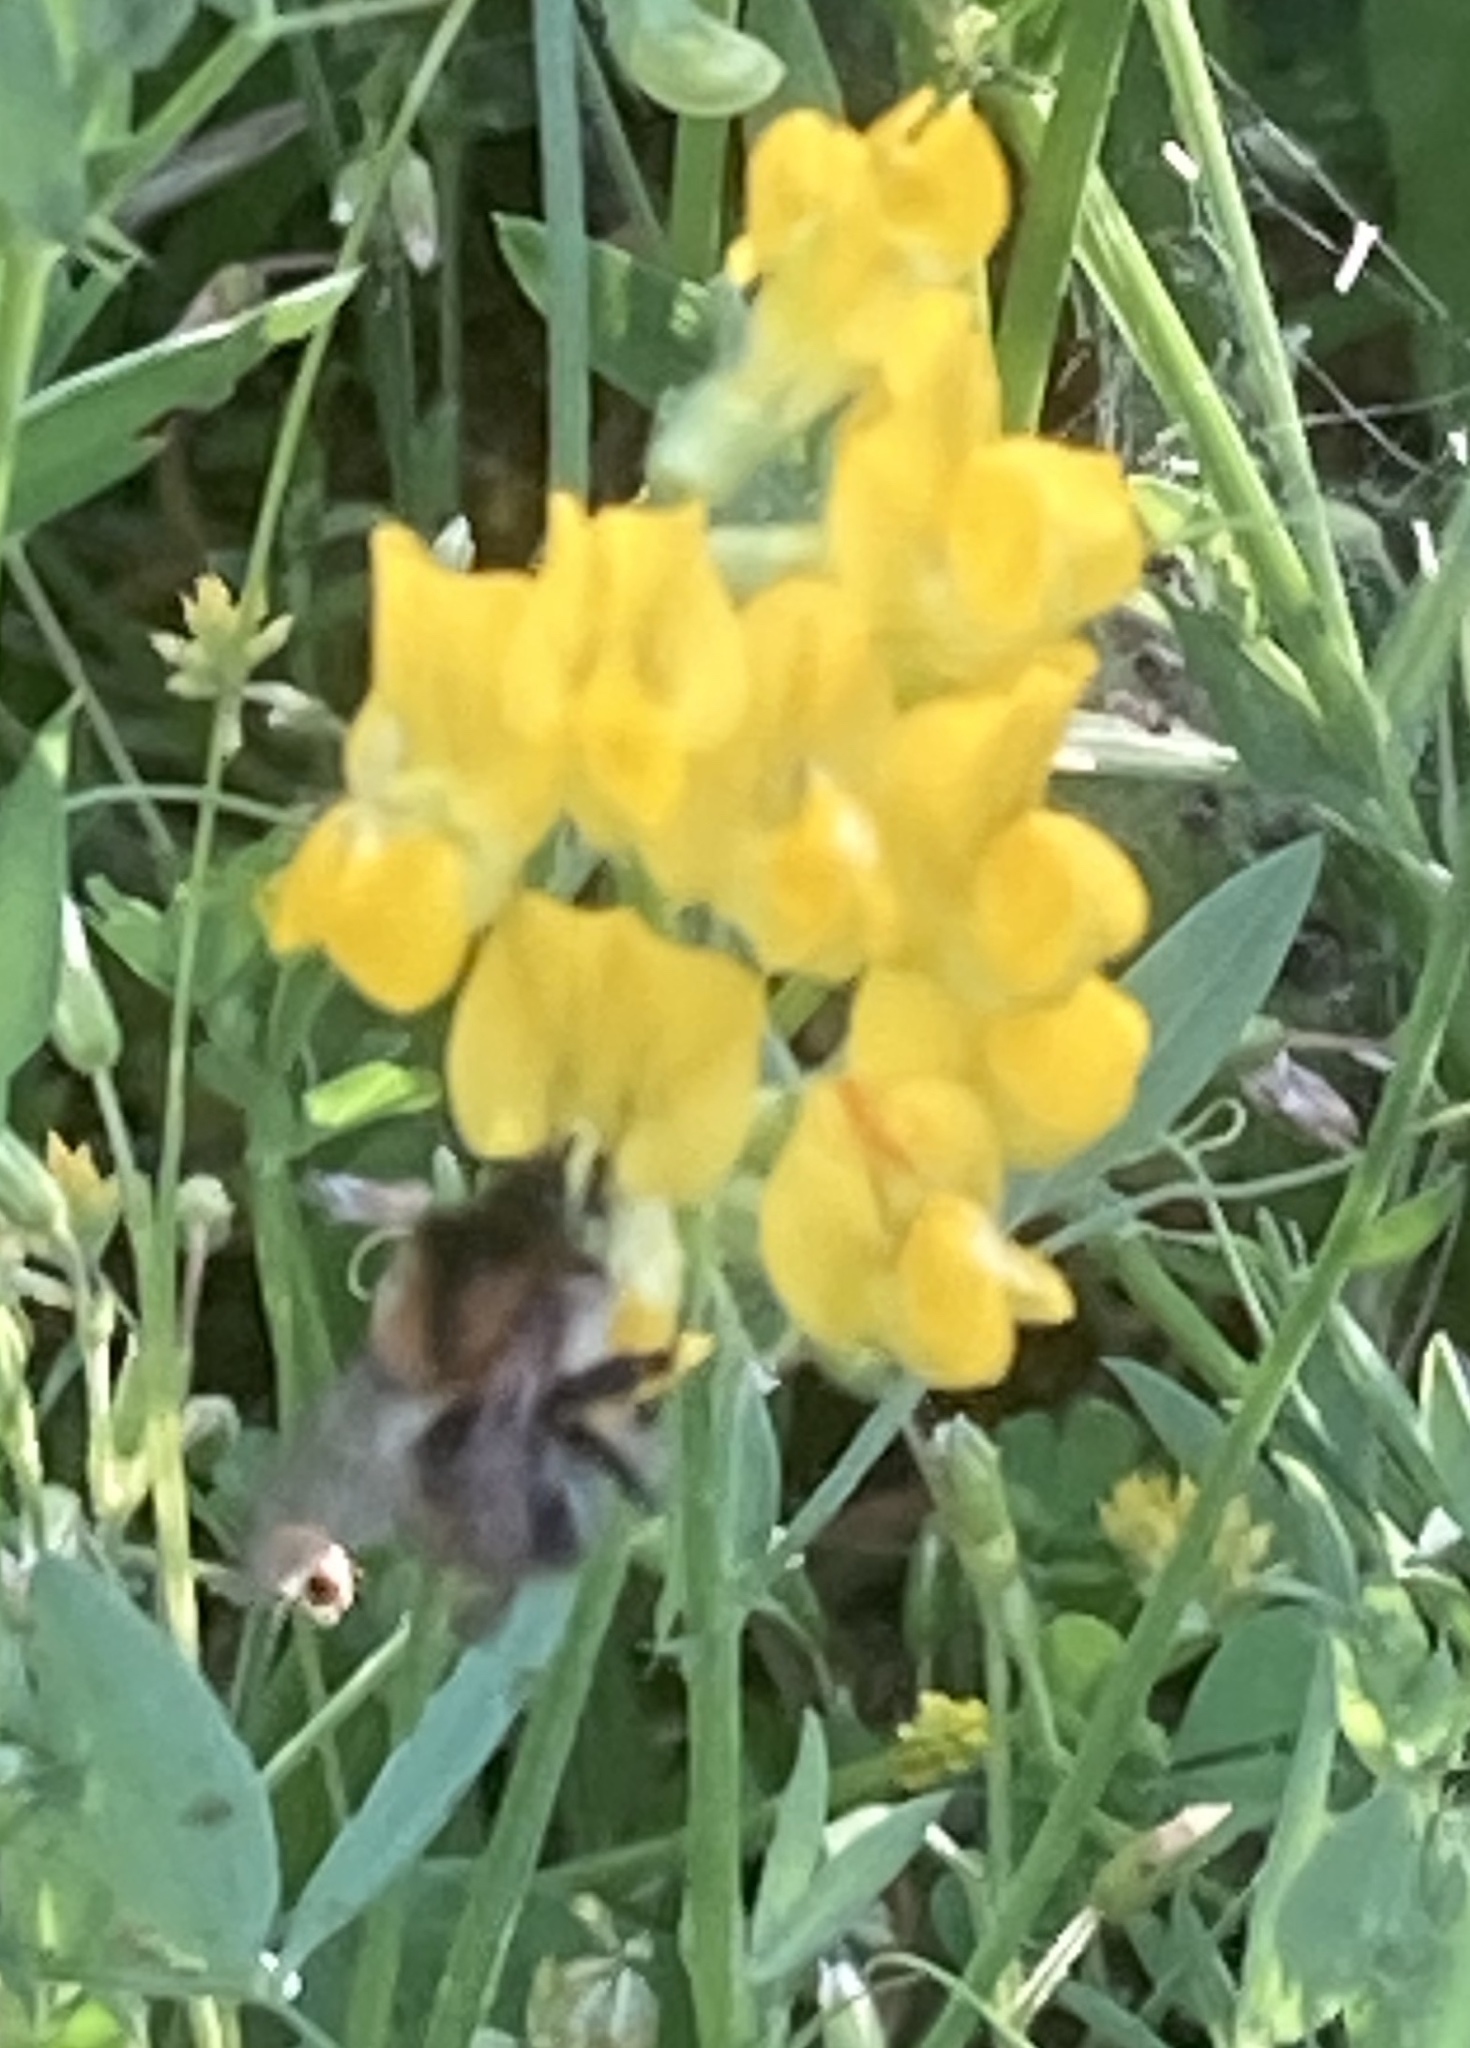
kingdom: Animalia
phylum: Arthropoda
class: Insecta
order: Hymenoptera
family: Apidae
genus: Bombus
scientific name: Bombus pascuorum
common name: Common carder bee
